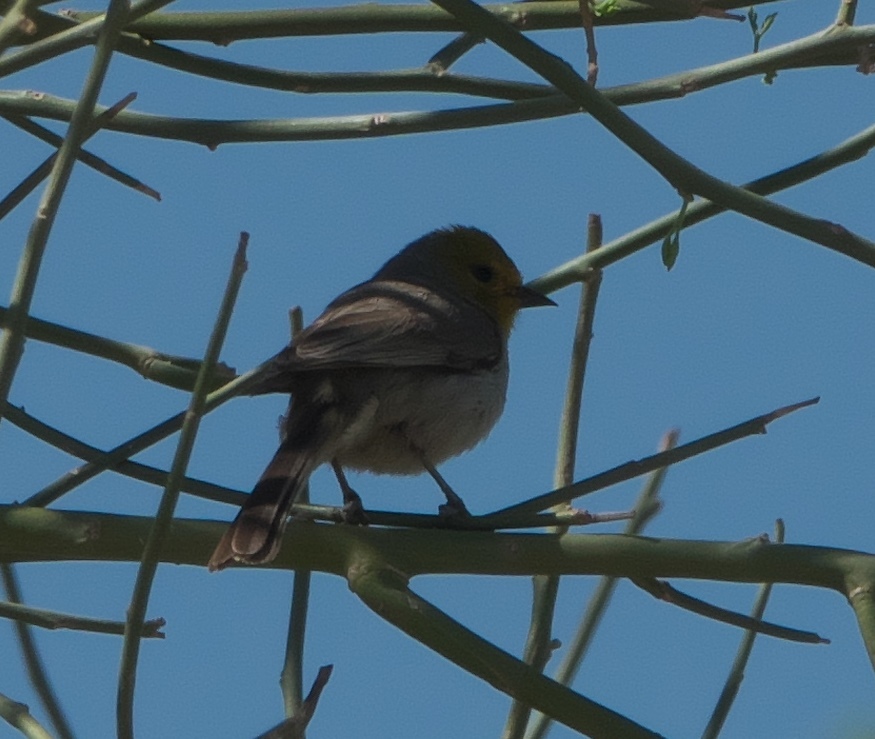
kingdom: Animalia
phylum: Chordata
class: Aves
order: Passeriformes
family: Remizidae
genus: Auriparus
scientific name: Auriparus flaviceps
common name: Verdin
